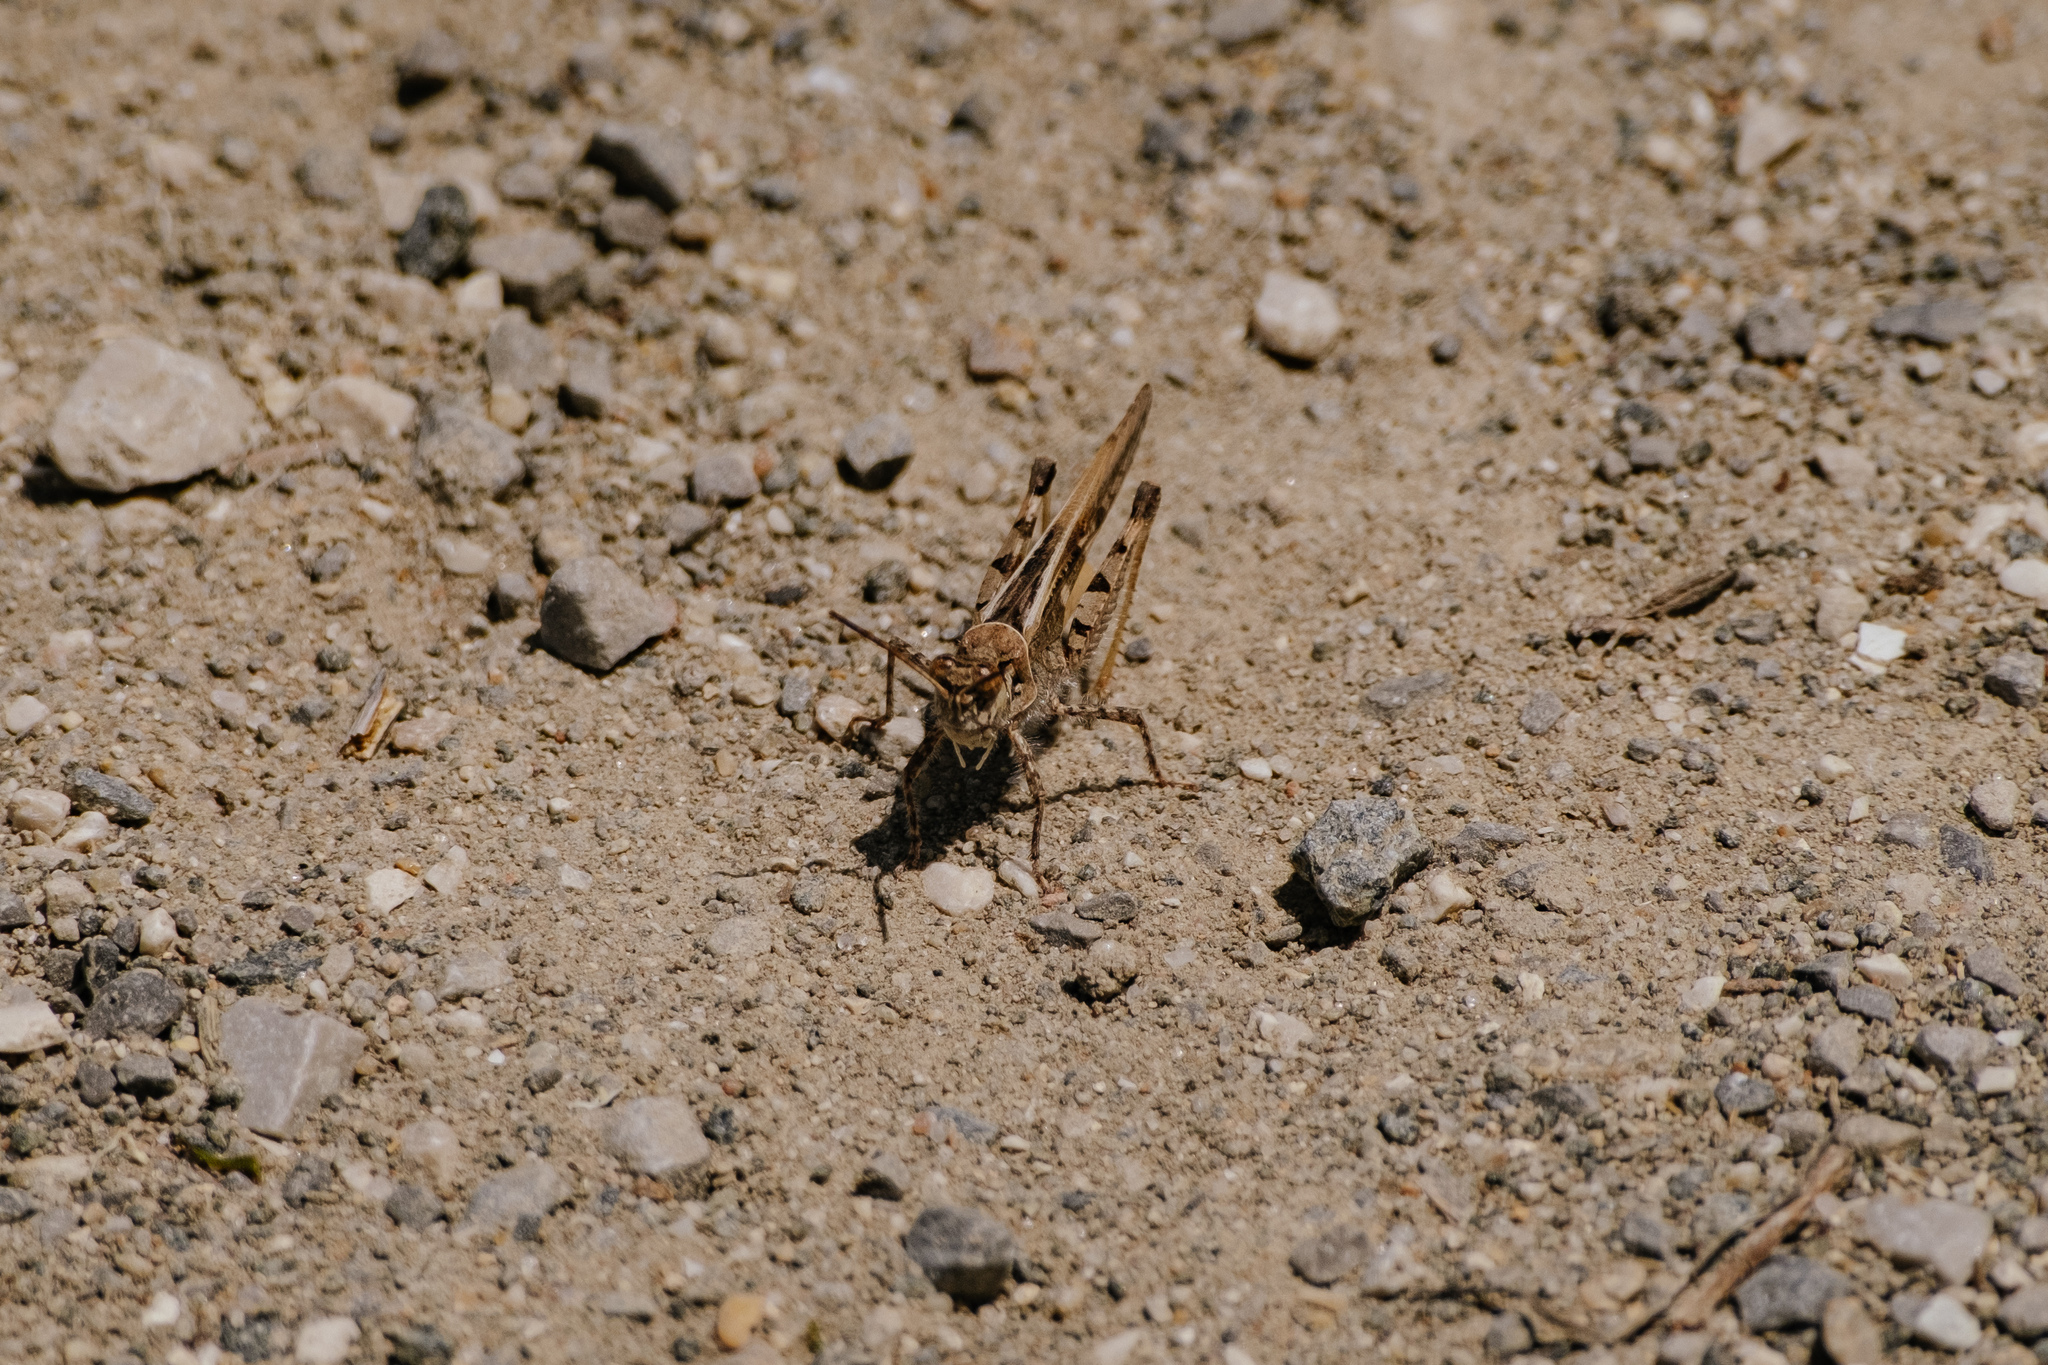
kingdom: Animalia
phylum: Arthropoda
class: Insecta
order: Orthoptera
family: Acrididae
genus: Acrotylus
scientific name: Acrotylus patruelis
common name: Slender burrowing grasshopper
